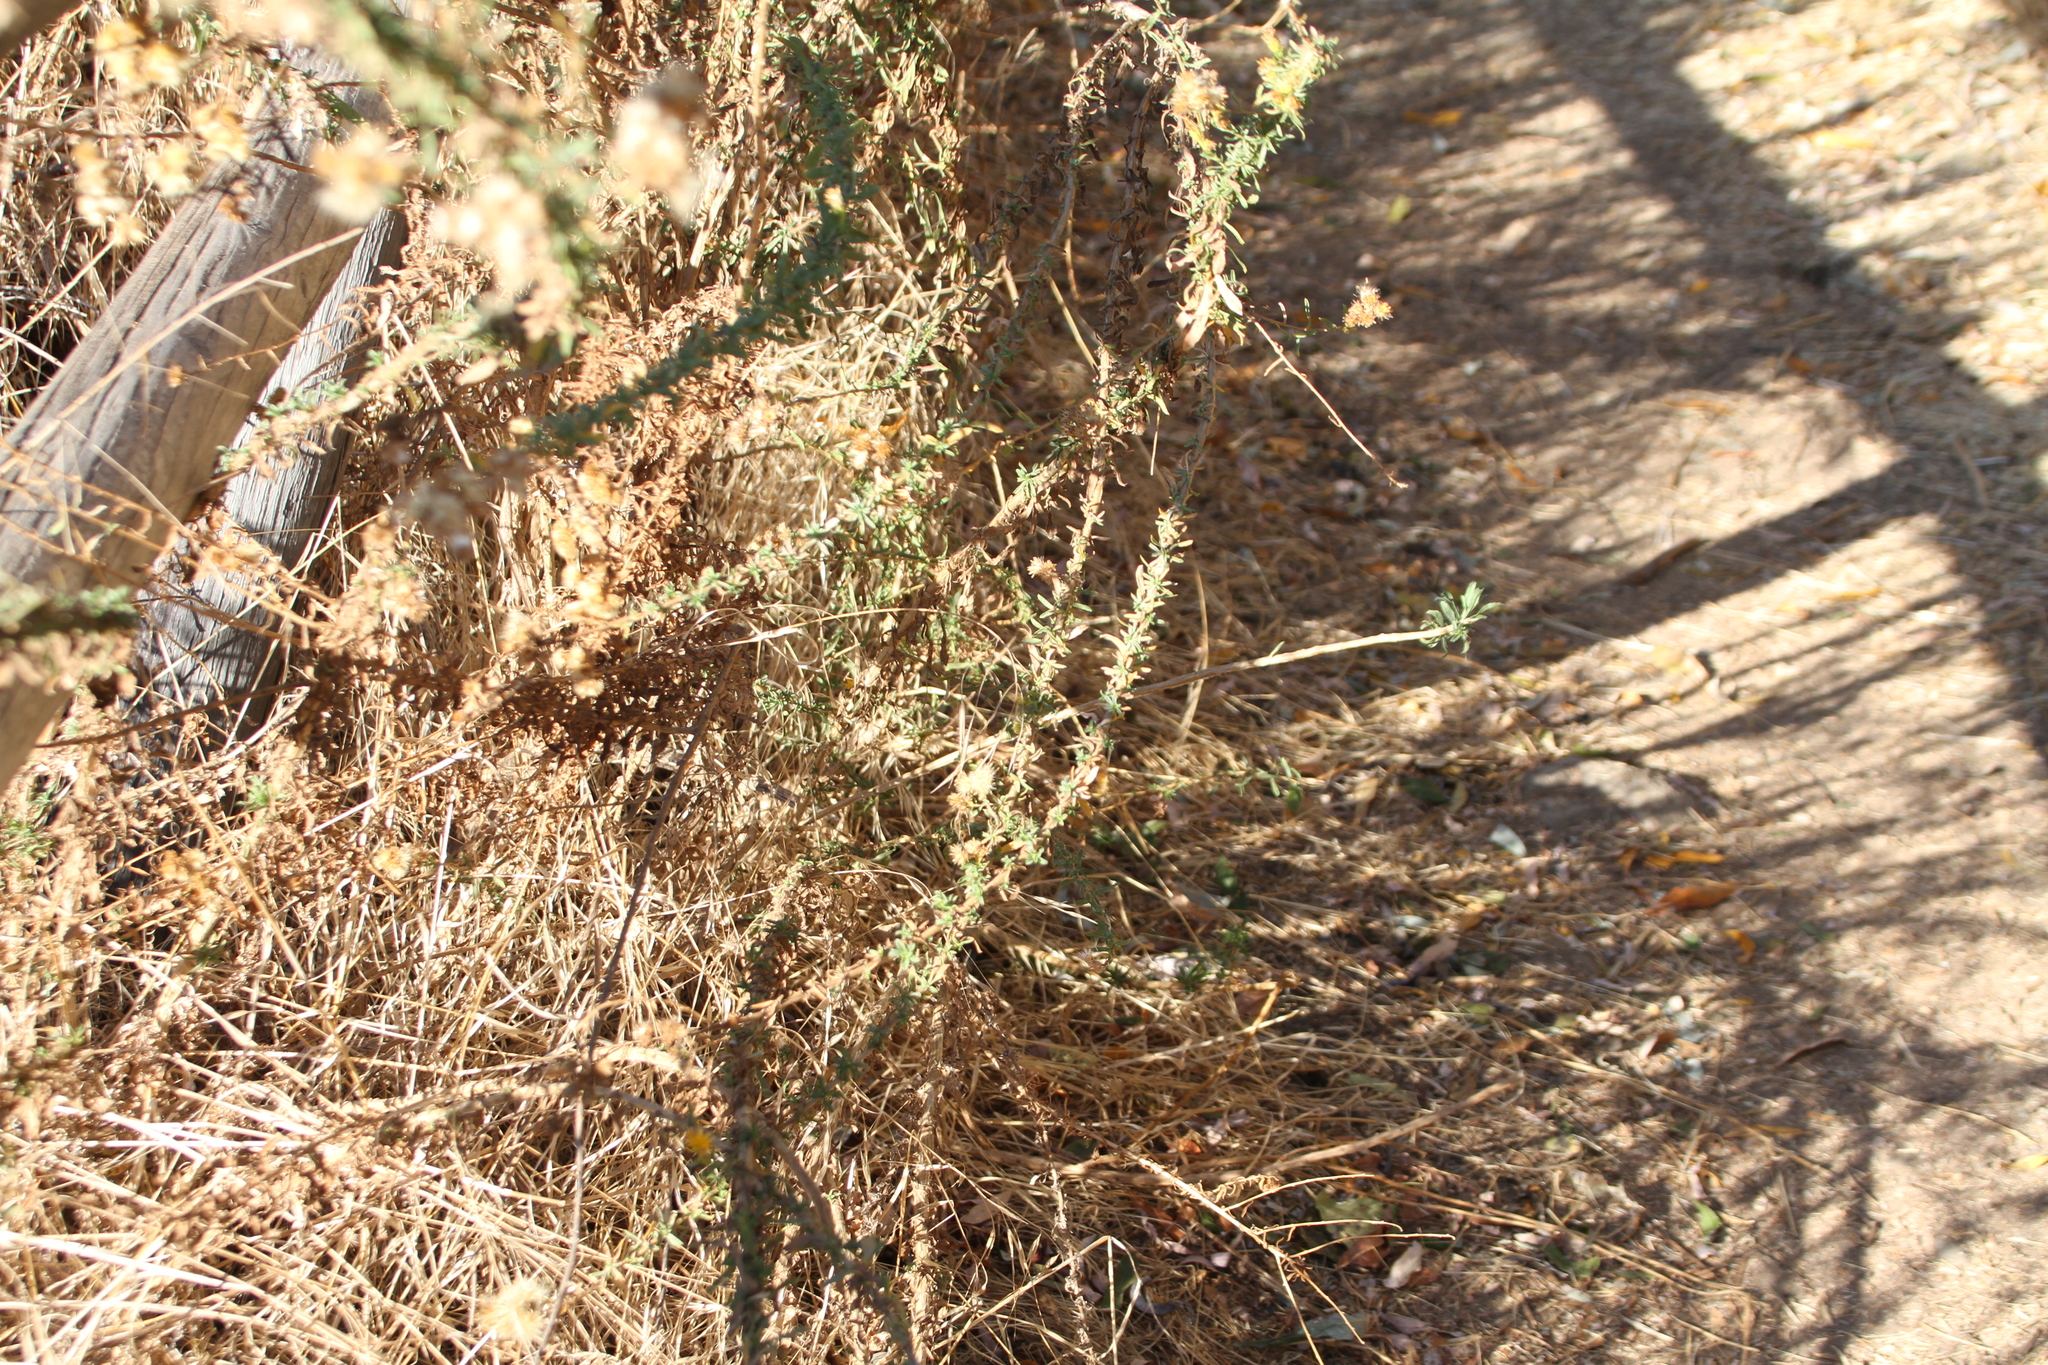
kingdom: Plantae
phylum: Tracheophyta
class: Magnoliopsida
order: Asterales
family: Asteraceae
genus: Isocoma
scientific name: Isocoma menziesii
